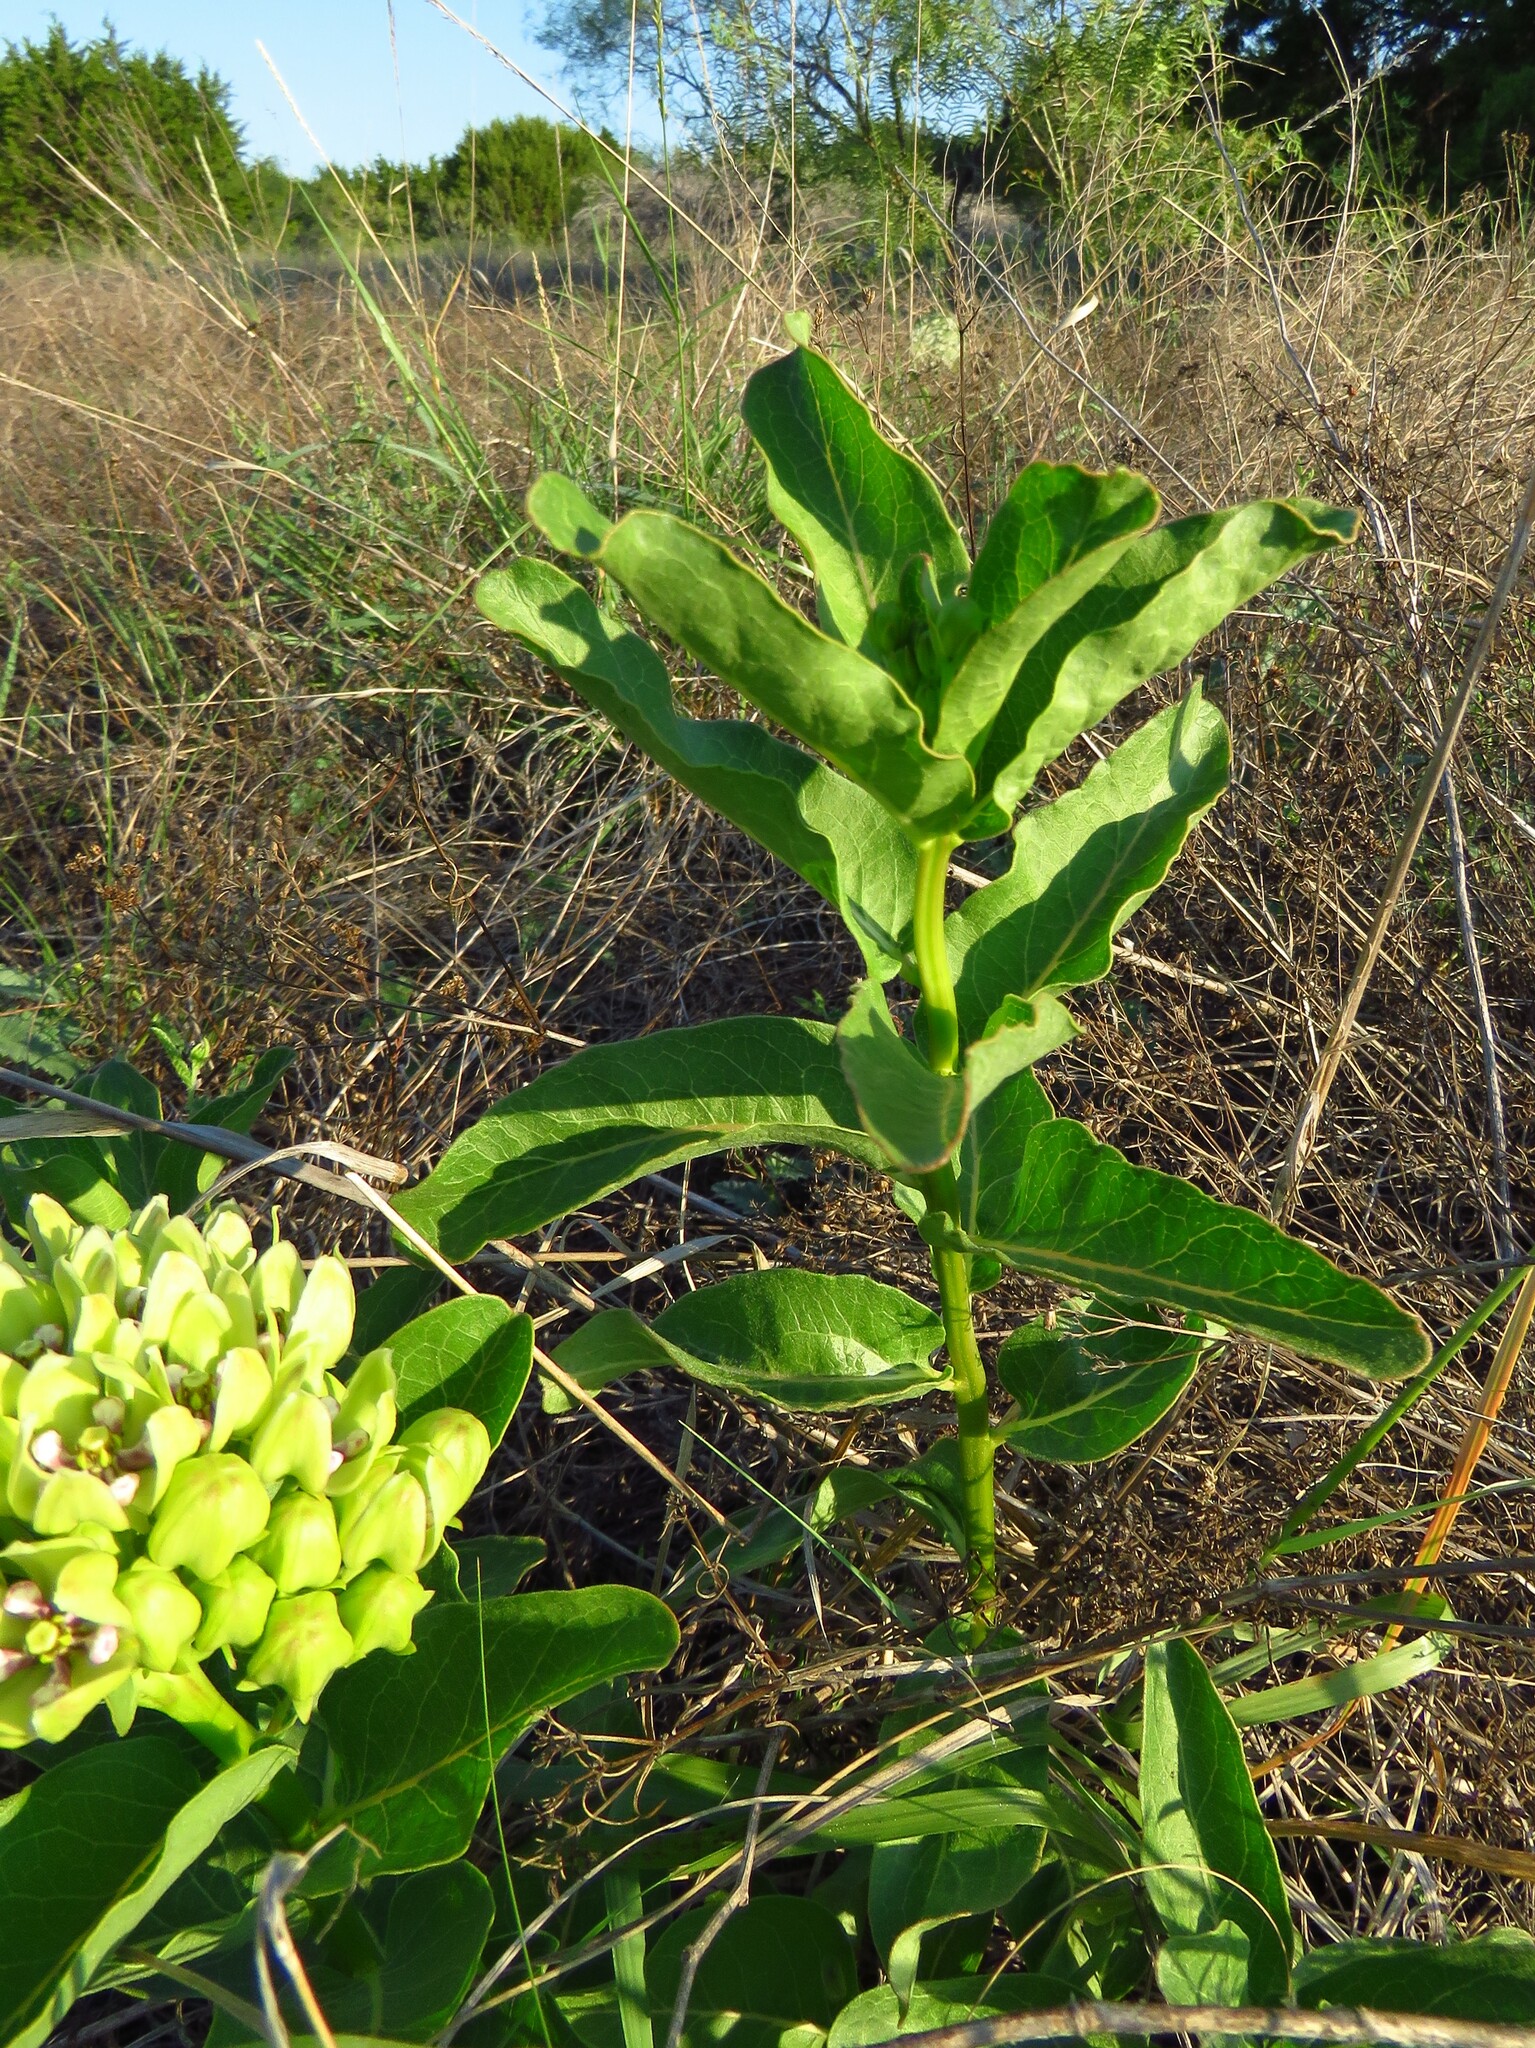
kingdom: Plantae
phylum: Tracheophyta
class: Magnoliopsida
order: Gentianales
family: Apocynaceae
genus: Asclepias
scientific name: Asclepias viridis
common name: Antelope-horns
